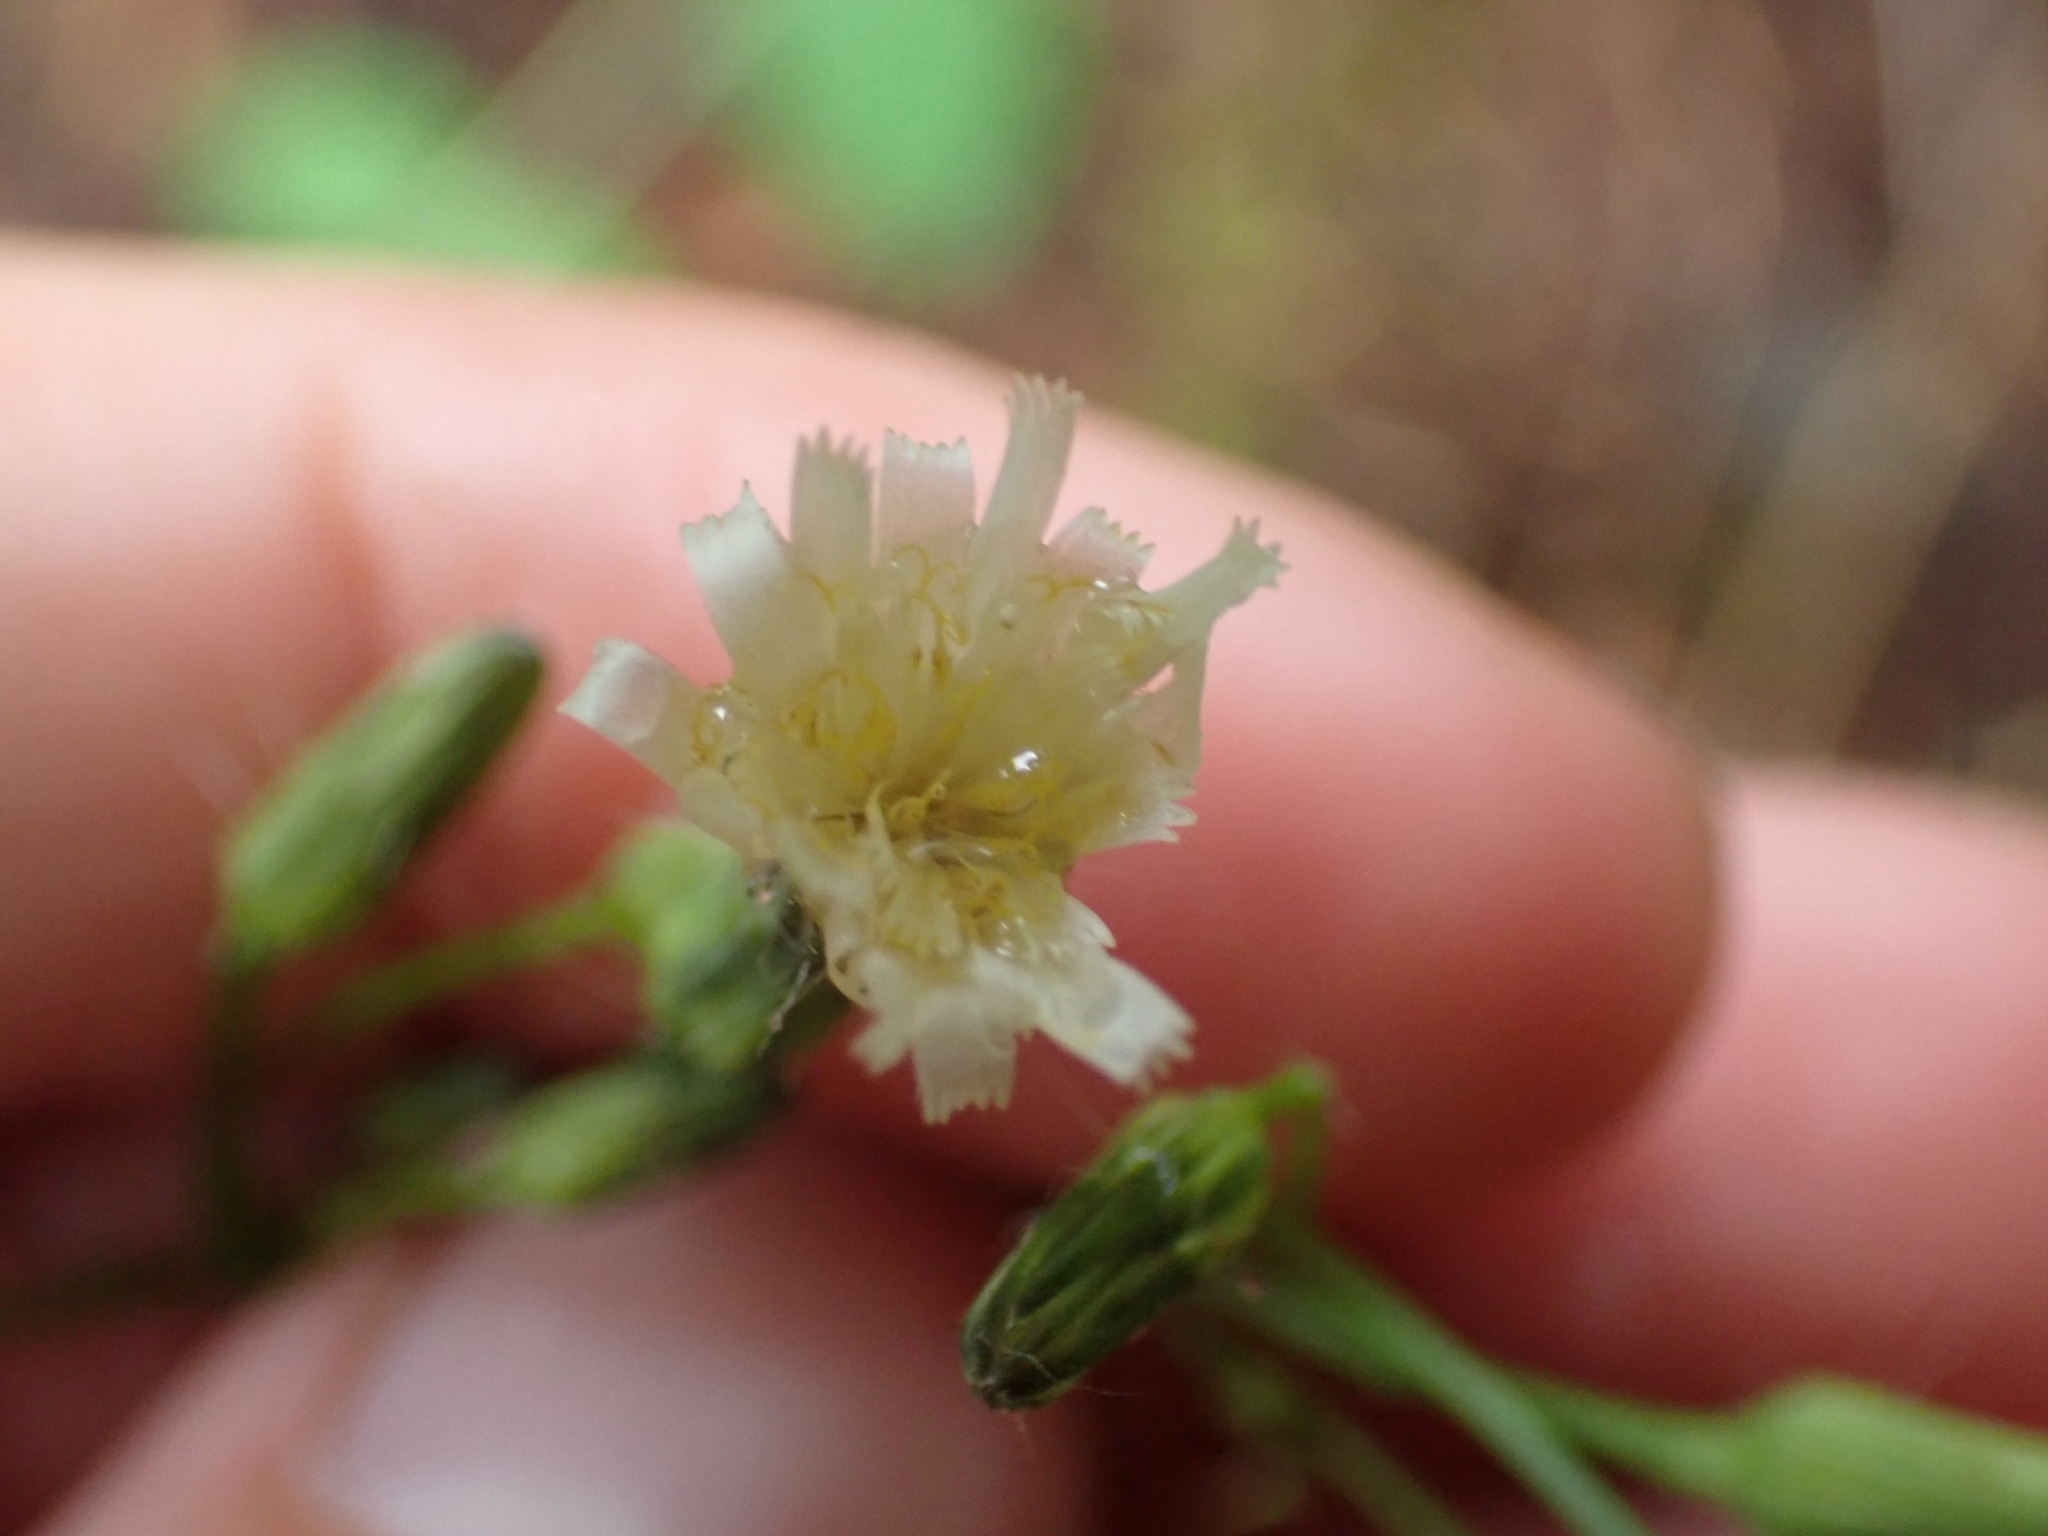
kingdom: Plantae
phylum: Tracheophyta
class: Magnoliopsida
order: Asterales
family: Asteraceae
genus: Hieracium
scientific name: Hieracium albiflorum
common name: White hawkweed
